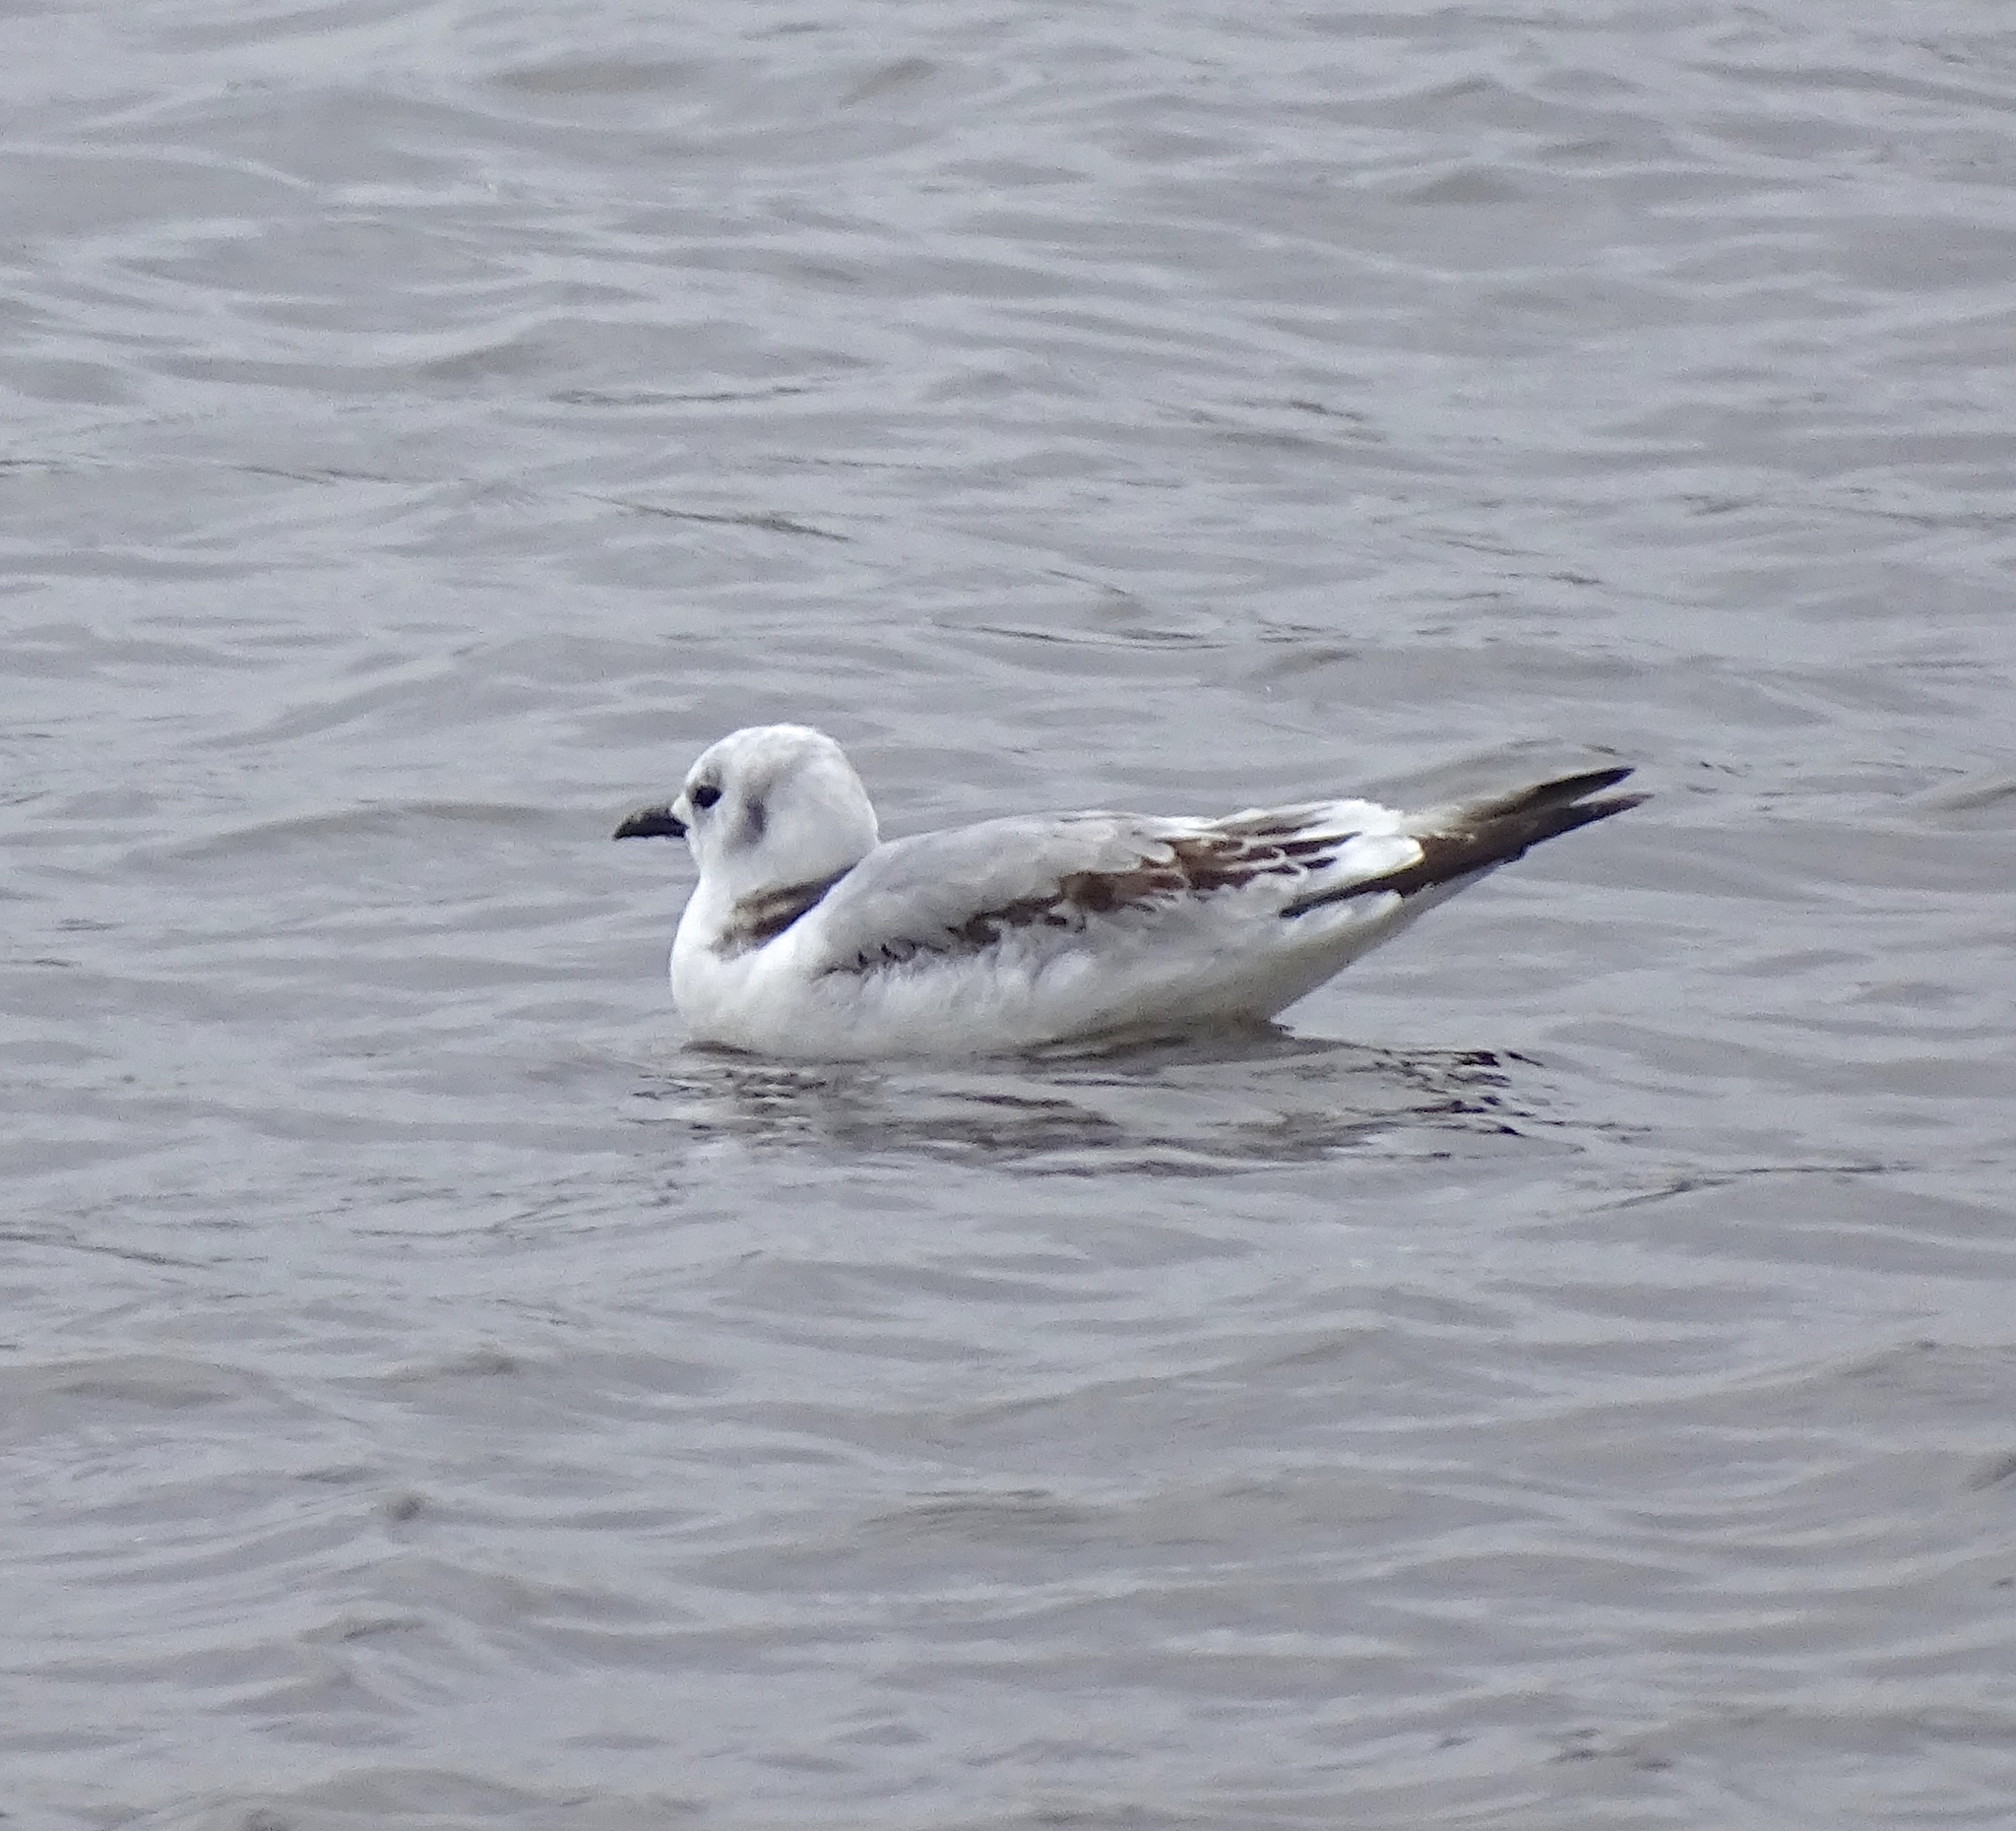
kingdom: Animalia
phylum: Chordata
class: Aves
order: Charadriiformes
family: Laridae
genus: Rissa
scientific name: Rissa tridactyla
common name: Black-legged kittiwake
